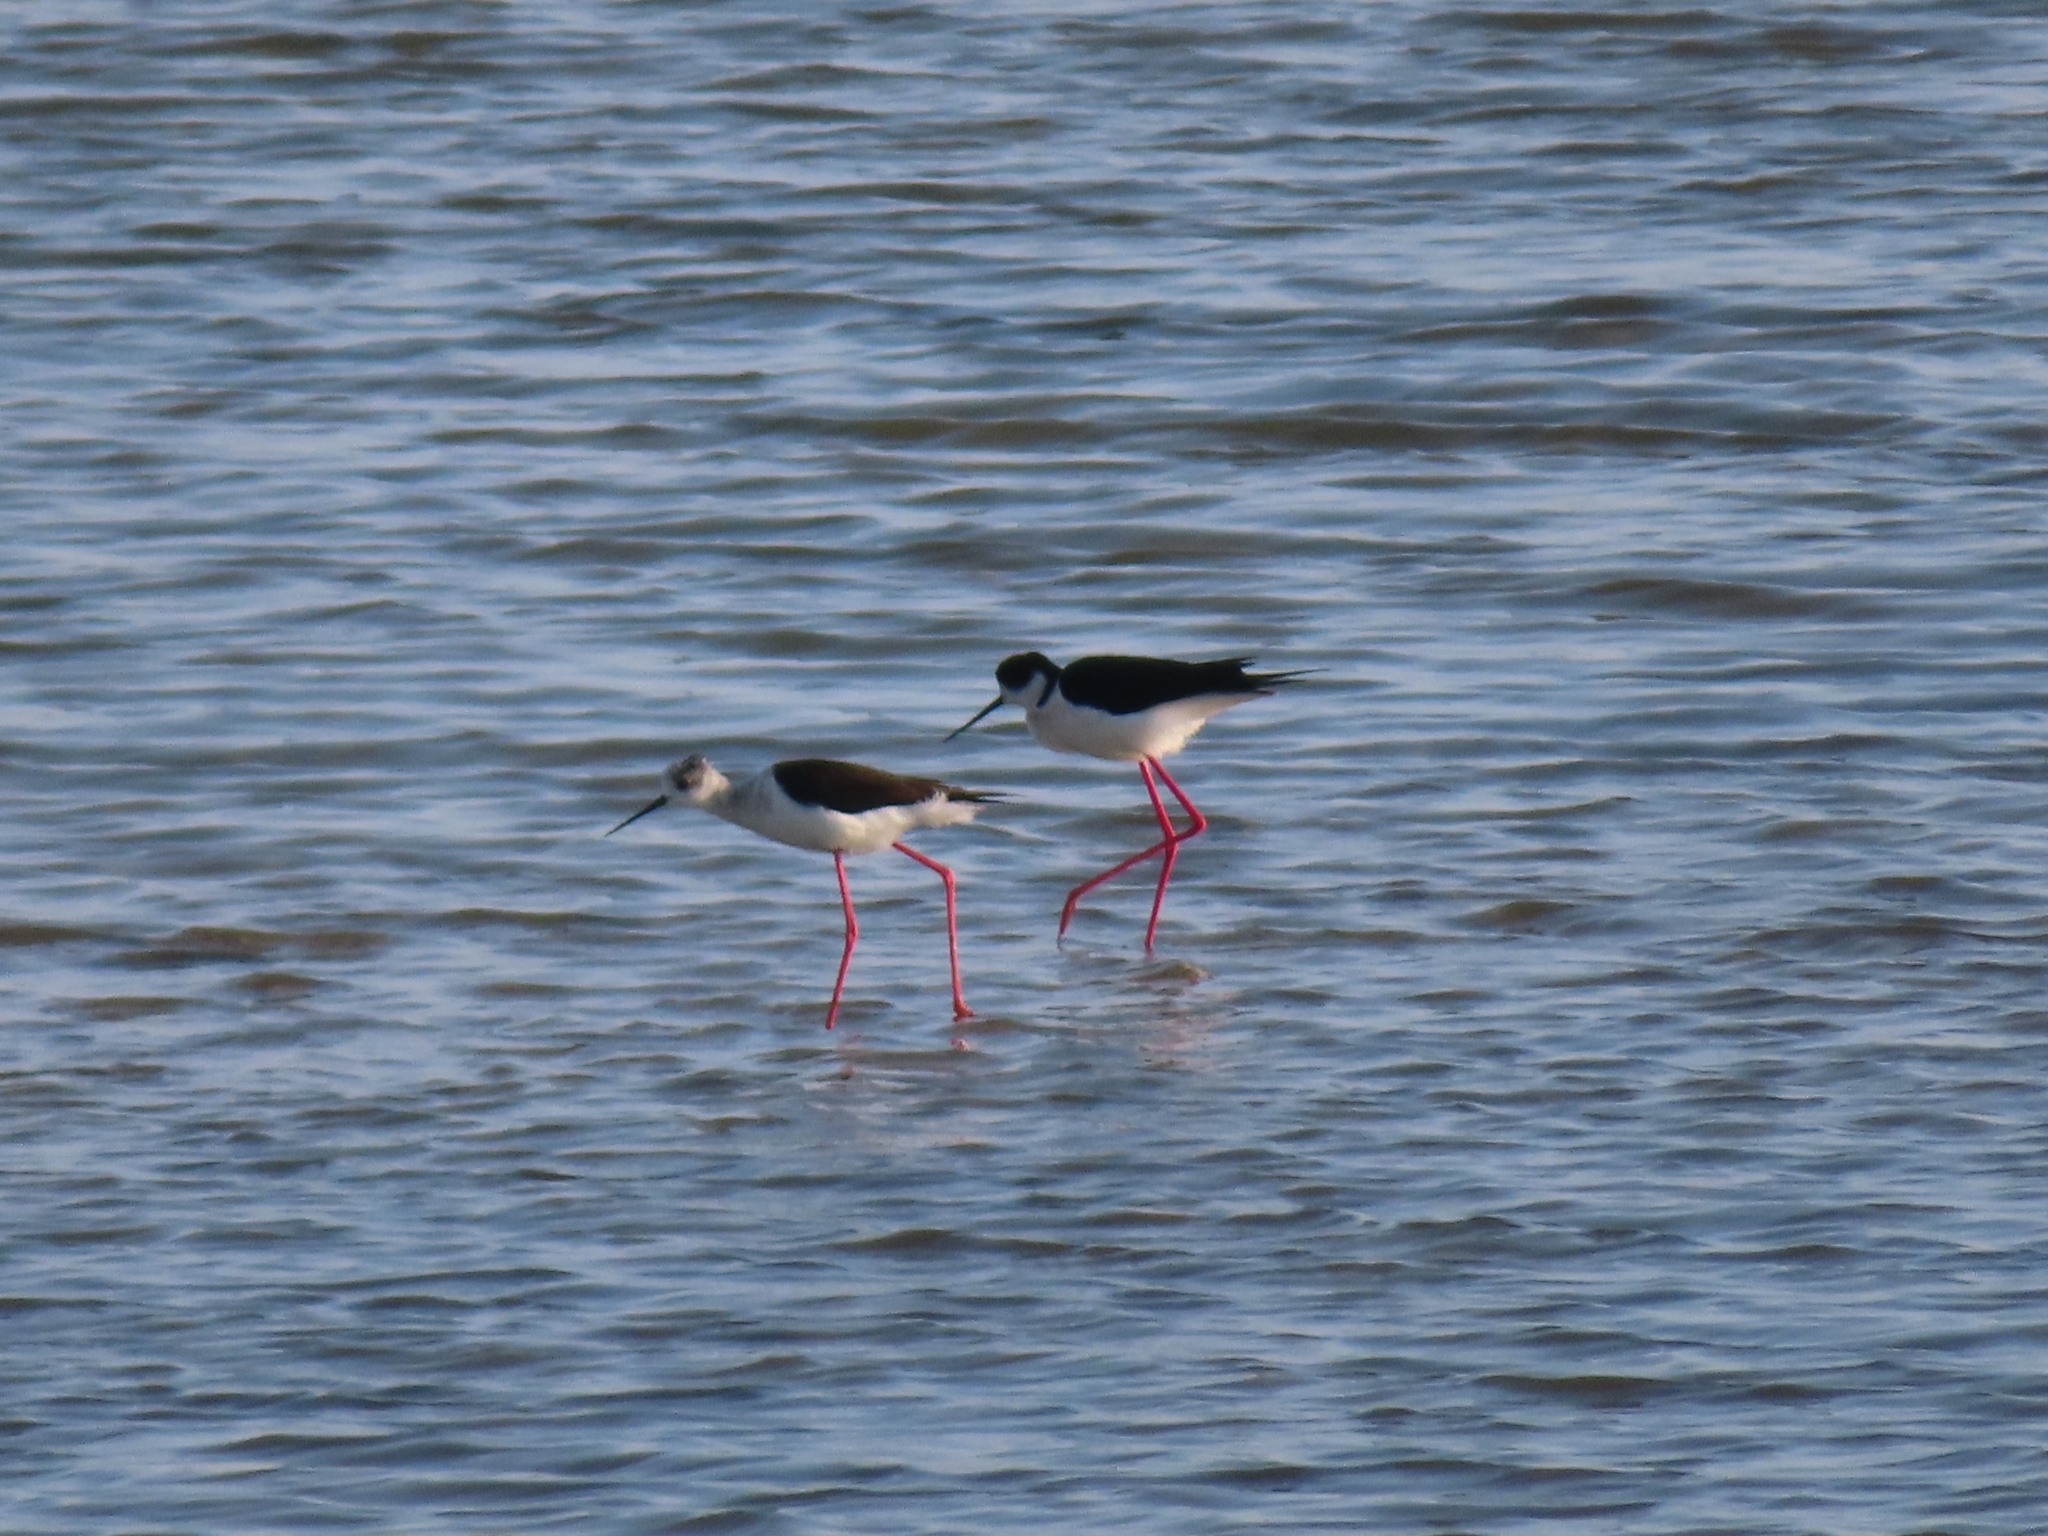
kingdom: Animalia
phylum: Chordata
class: Aves
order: Charadriiformes
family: Recurvirostridae
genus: Himantopus
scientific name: Himantopus himantopus
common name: Black-winged stilt
